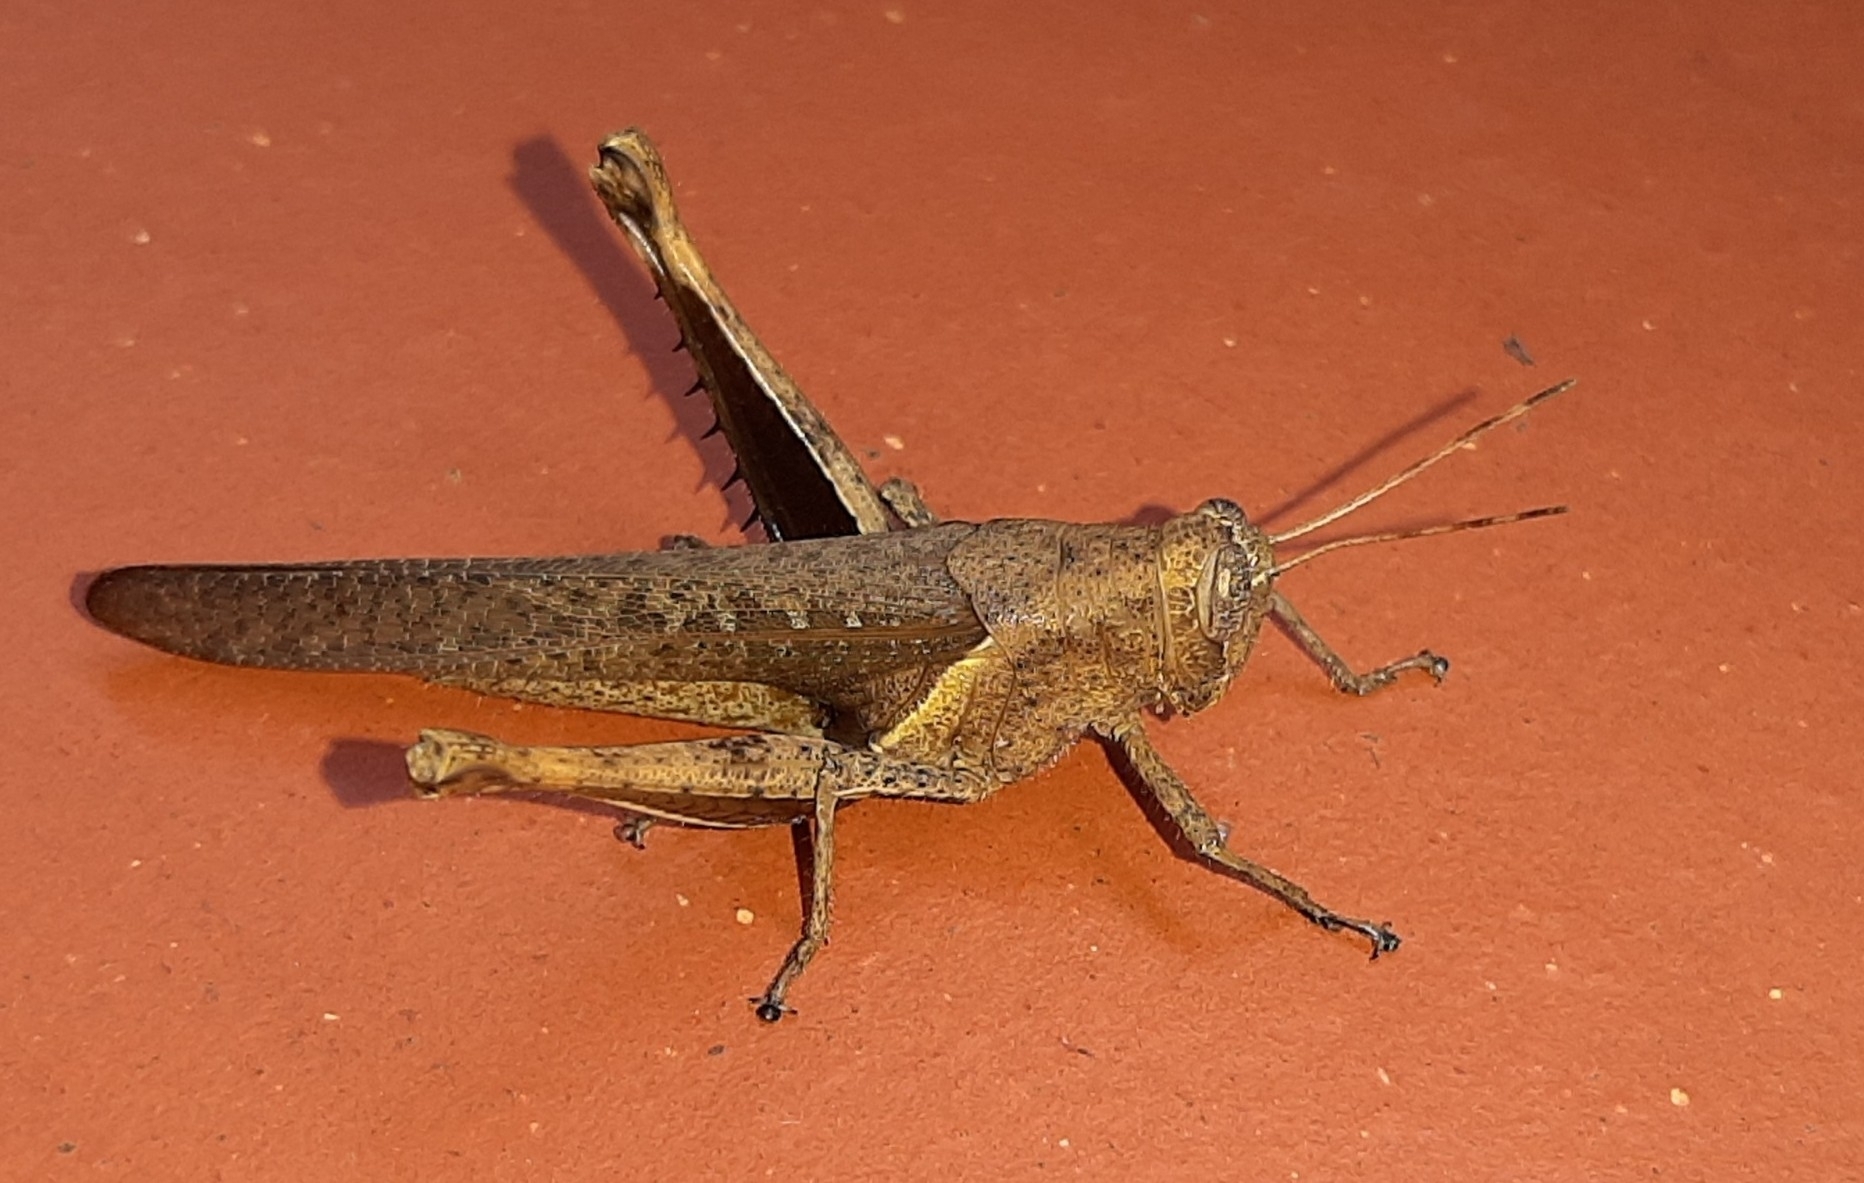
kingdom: Animalia
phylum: Arthropoda
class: Insecta
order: Orthoptera
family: Acrididae
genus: Abracris
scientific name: Abracris flavolineata
